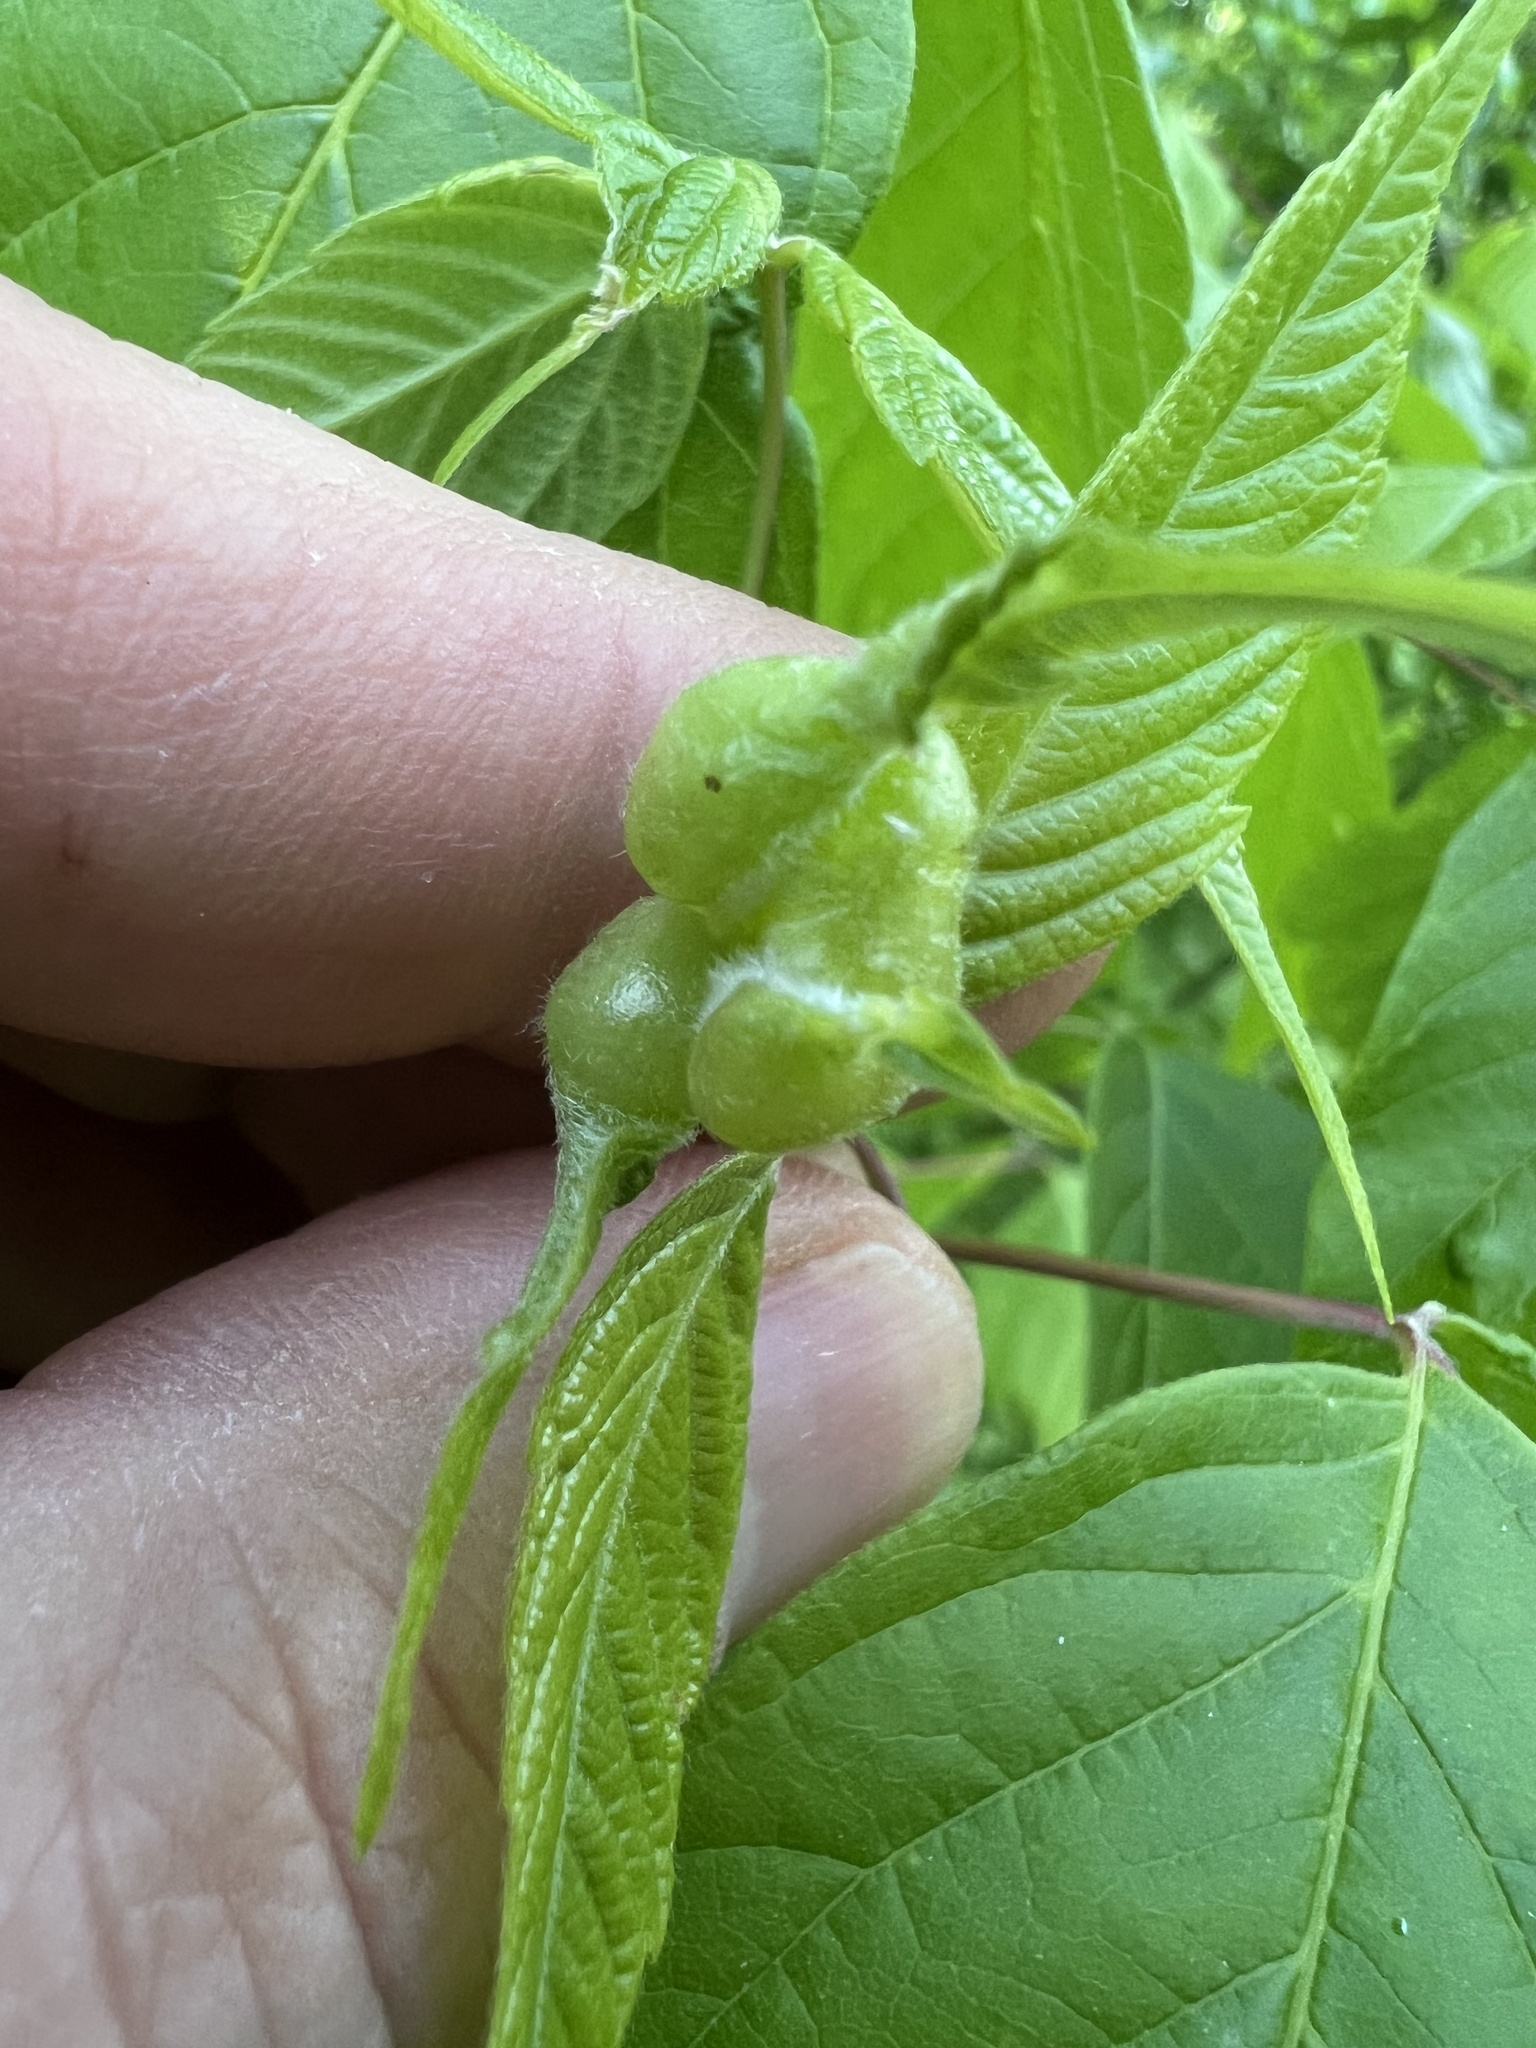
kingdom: Animalia
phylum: Arthropoda
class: Insecta
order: Diptera
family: Cecidomyiidae
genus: Contarinia
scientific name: Contarinia negundinis
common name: Boxelder budgall midge
